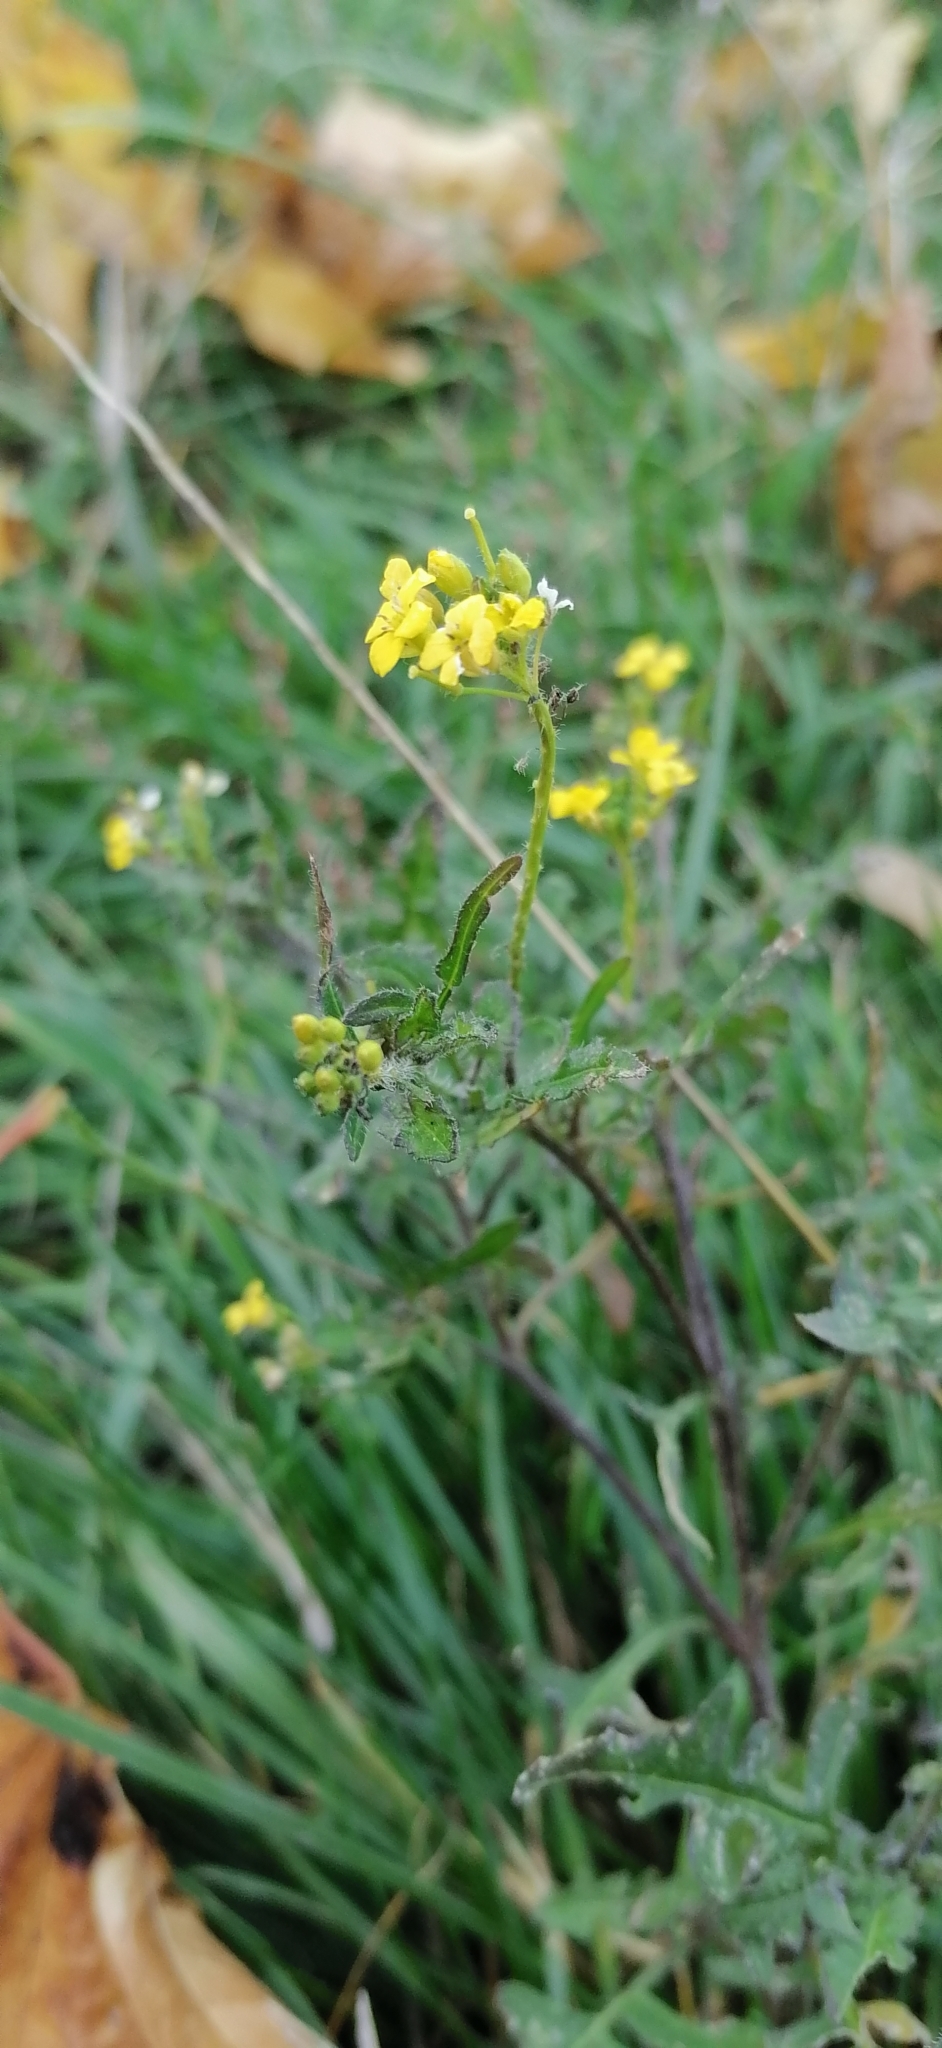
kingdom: Plantae
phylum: Tracheophyta
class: Magnoliopsida
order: Brassicales
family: Brassicaceae
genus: Sisymbrium
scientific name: Sisymbrium loeselii
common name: False london-rocket
